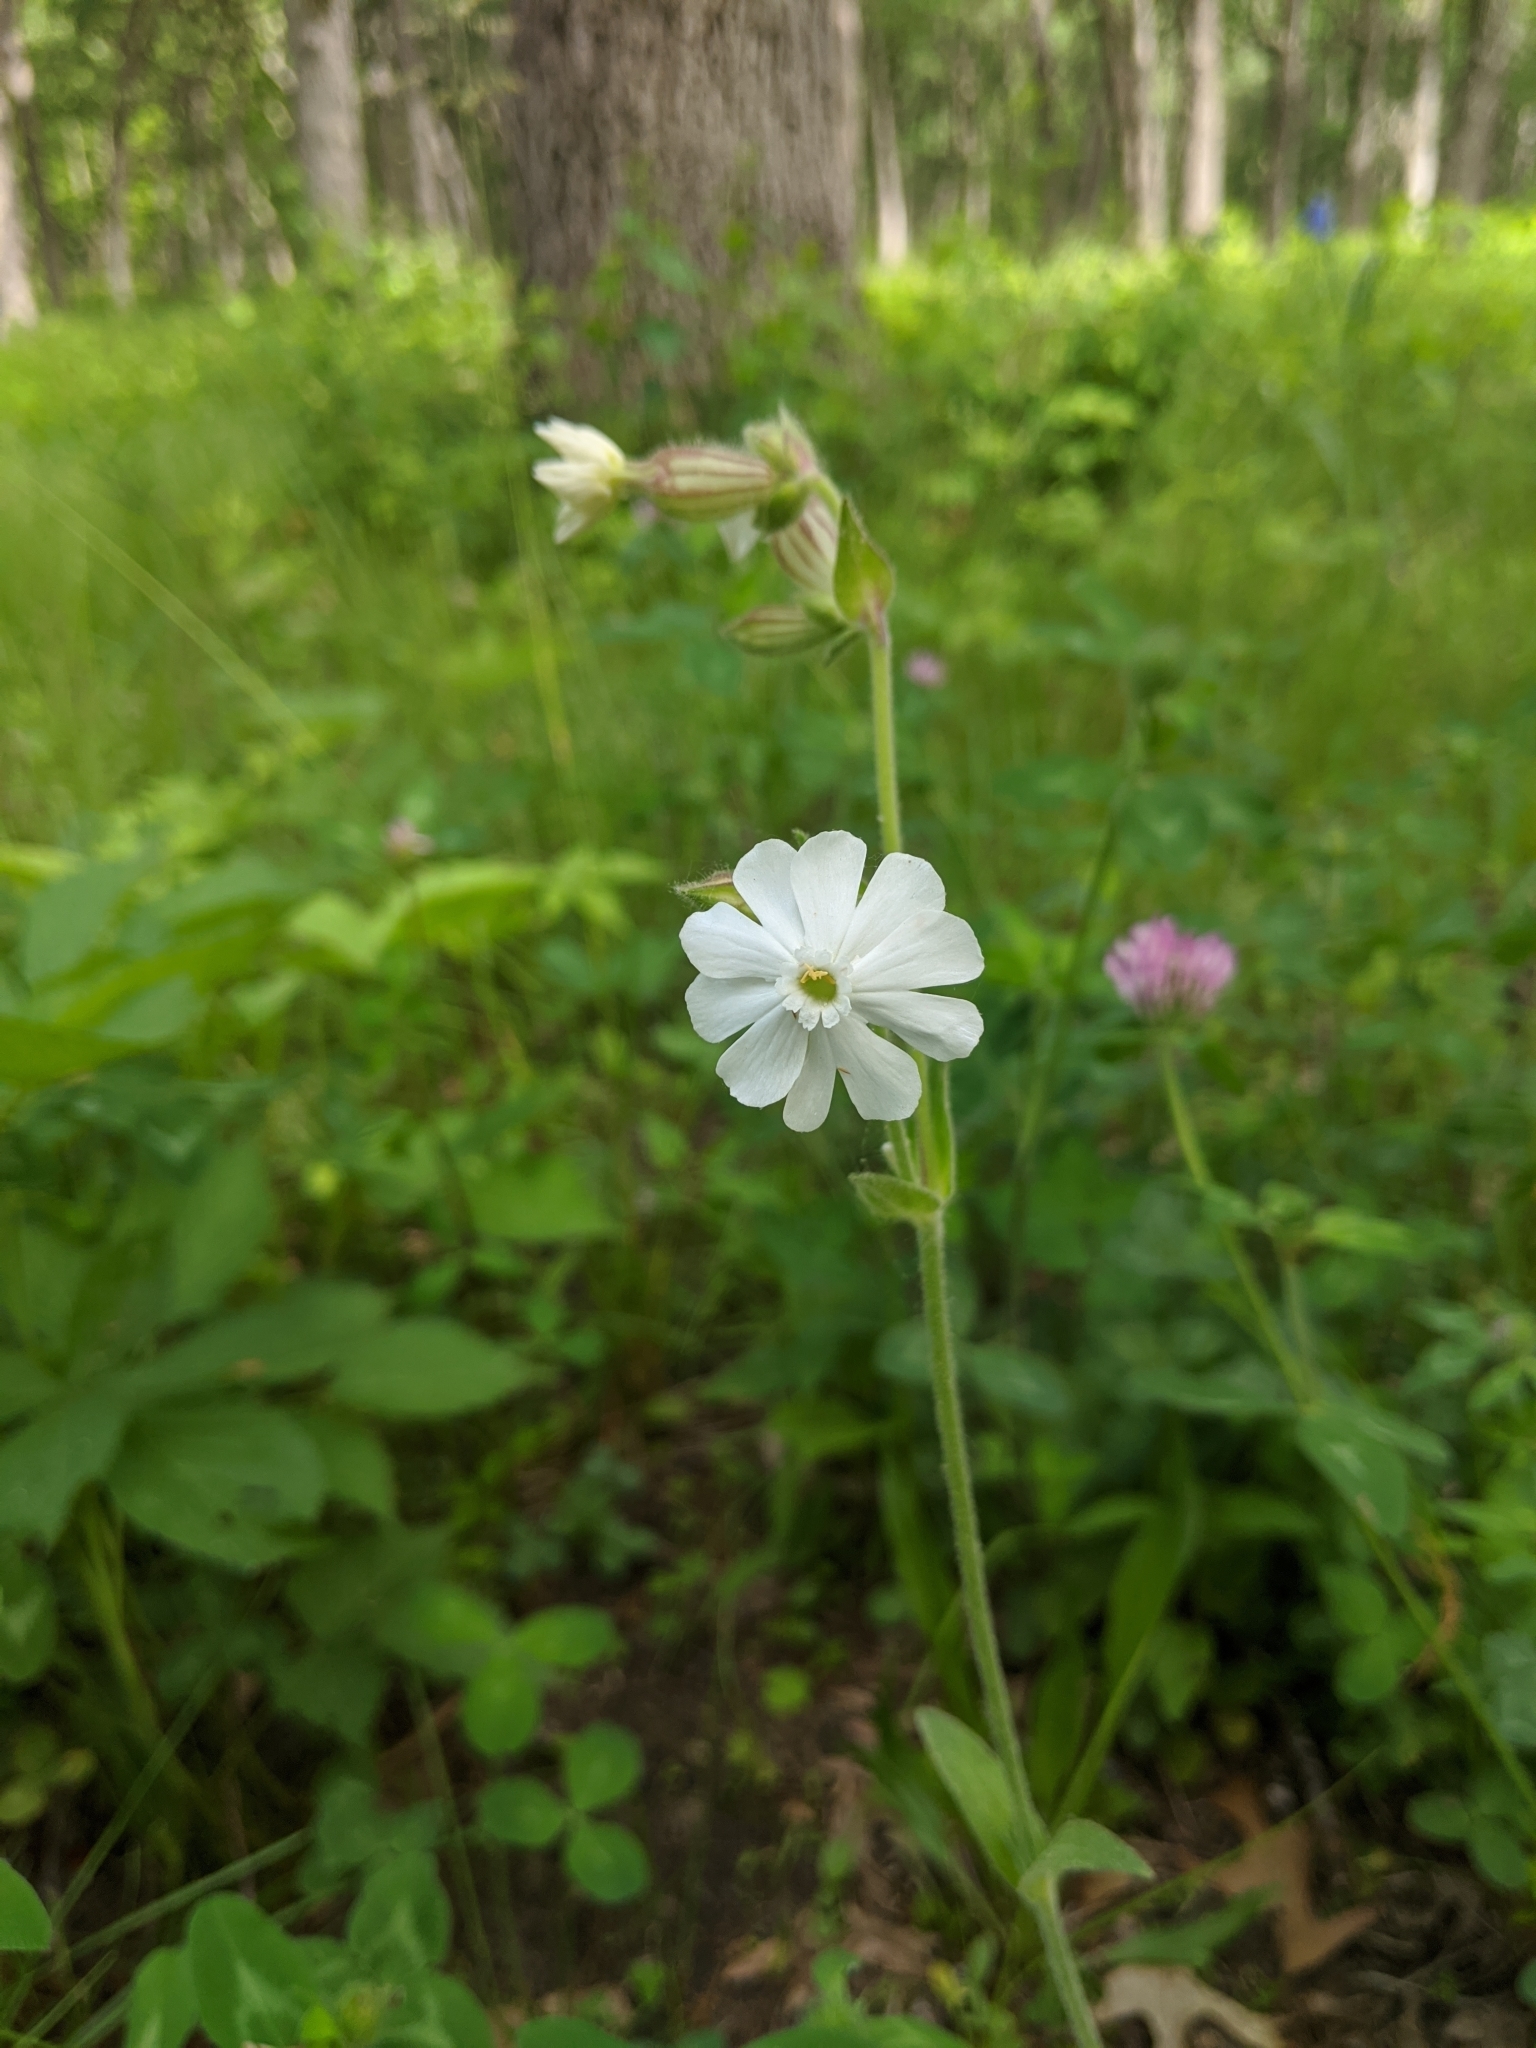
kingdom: Plantae
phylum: Tracheophyta
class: Magnoliopsida
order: Caryophyllales
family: Caryophyllaceae
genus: Silene
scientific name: Silene latifolia
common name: White campion
